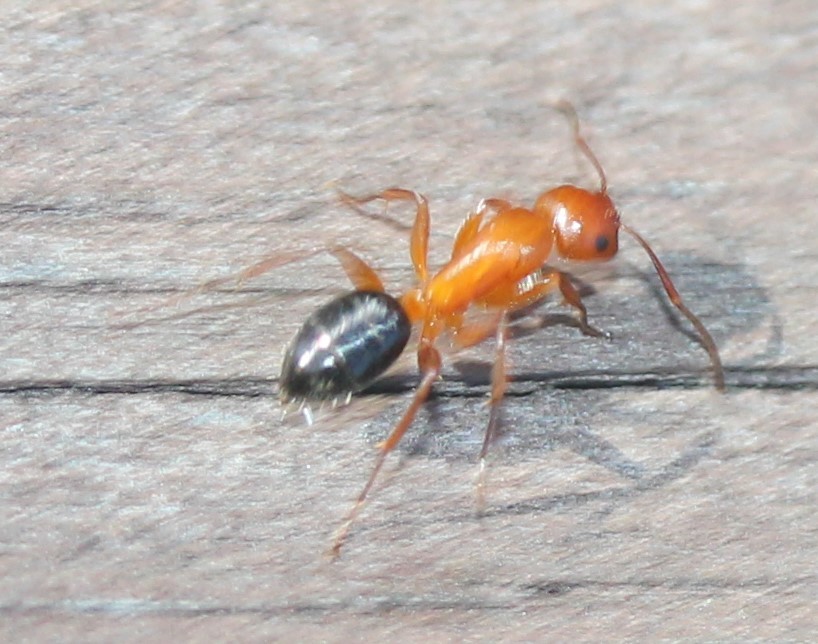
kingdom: Animalia
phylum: Arthropoda
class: Insecta
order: Hymenoptera
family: Formicidae
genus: Camponotus
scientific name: Camponotus decipiens
